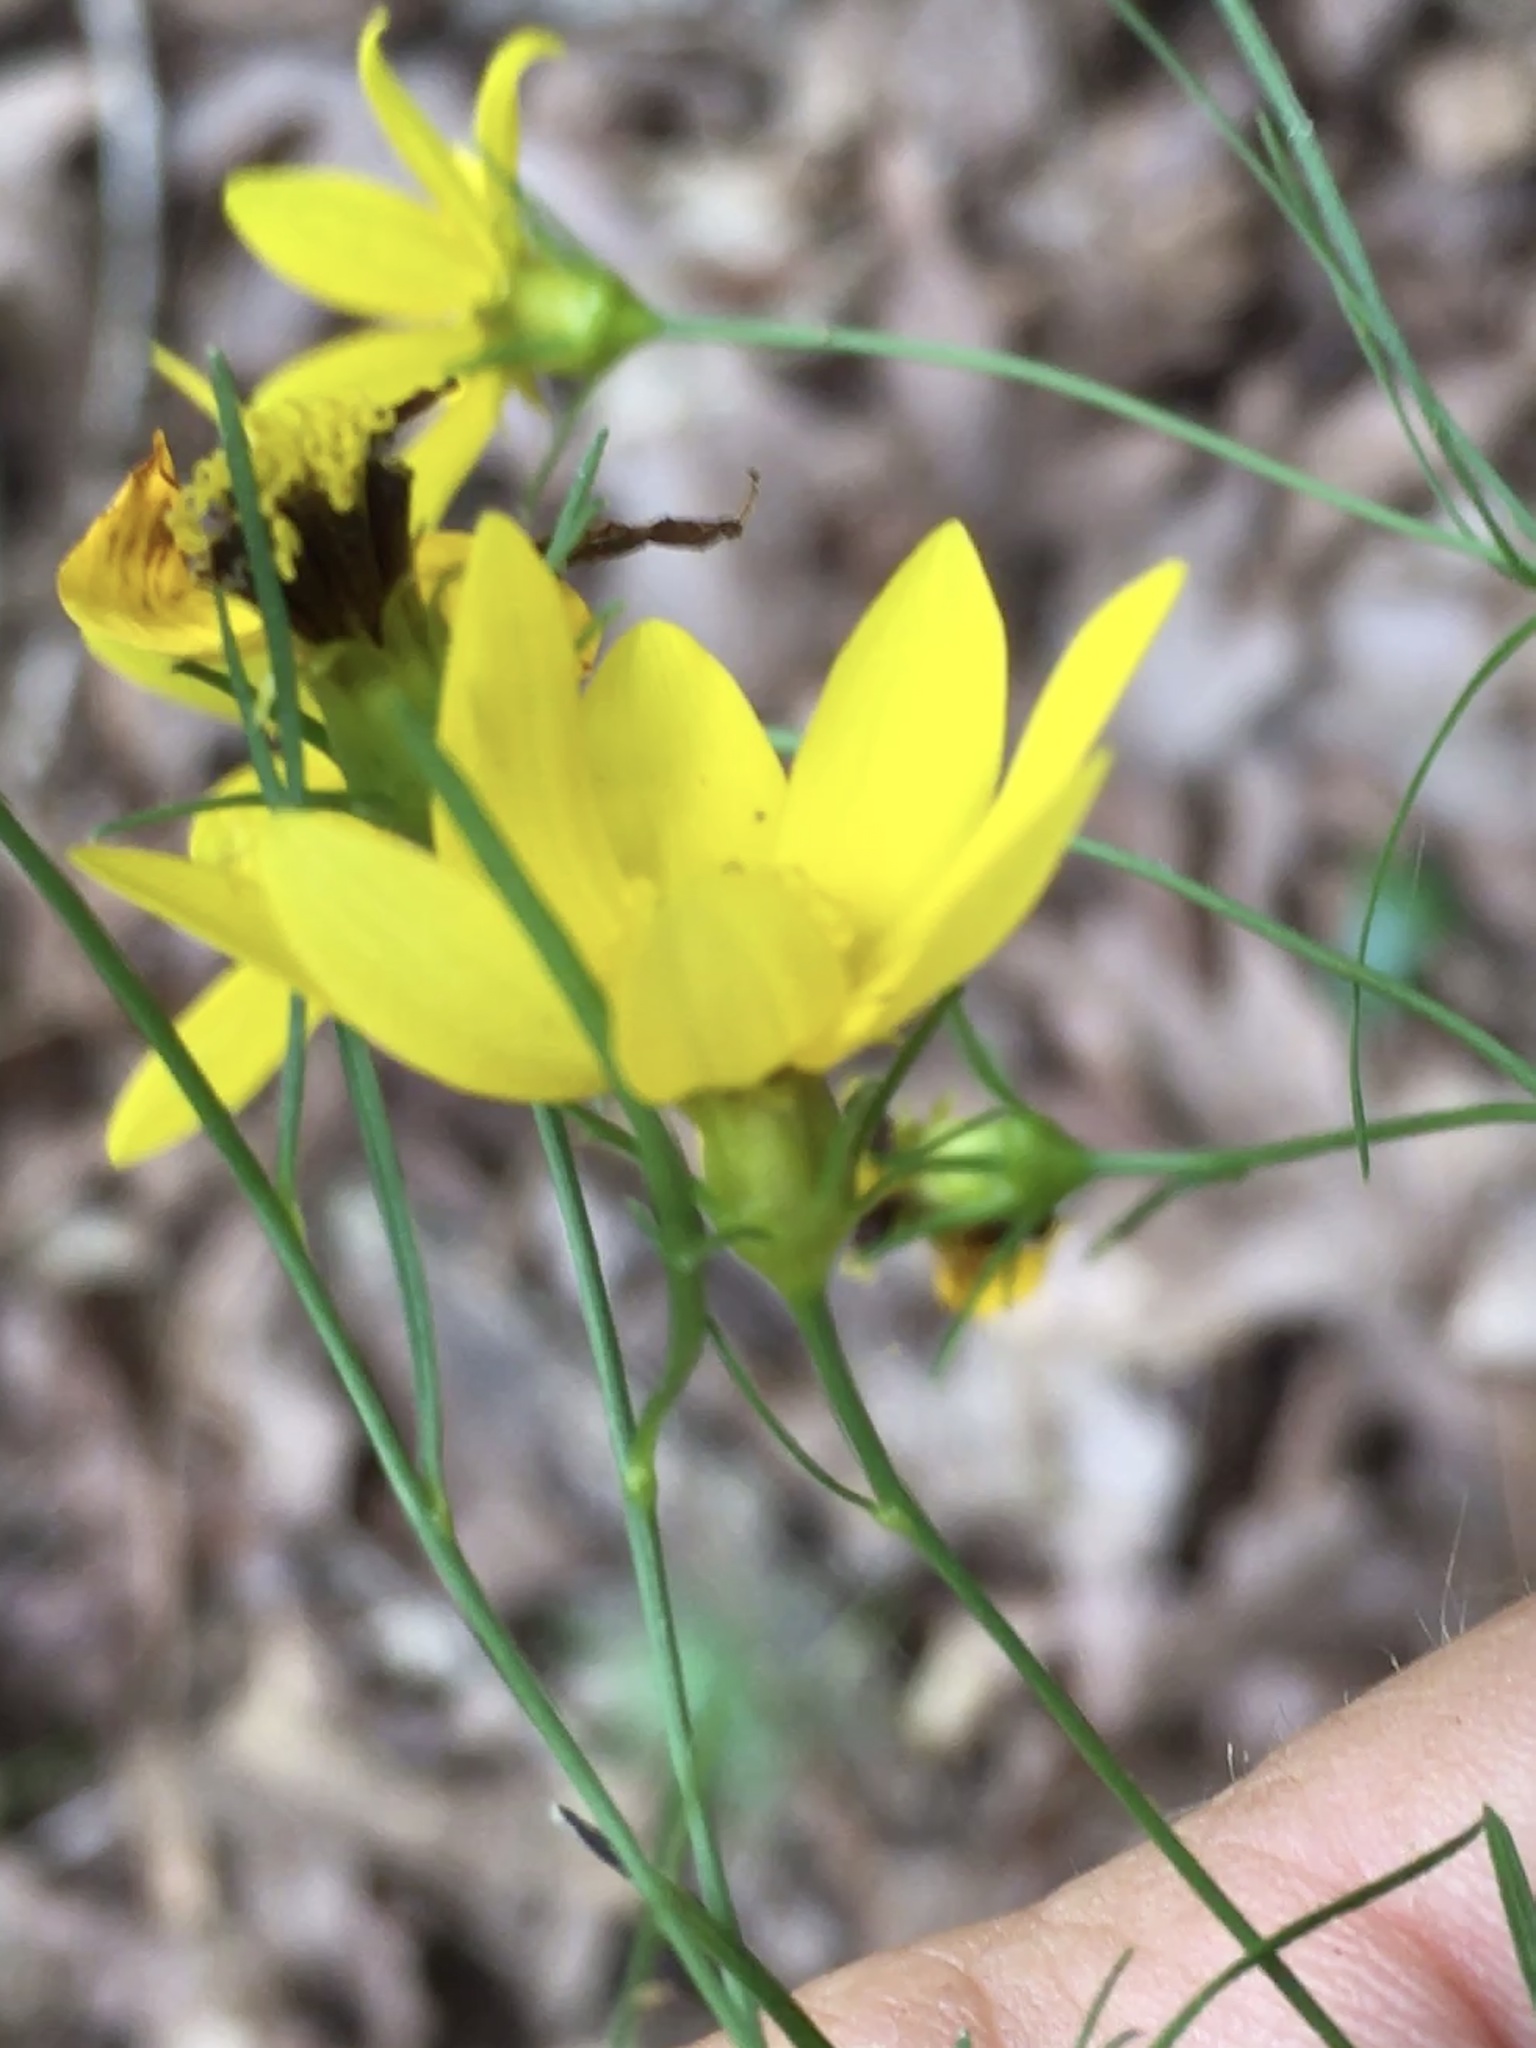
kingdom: Plantae
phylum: Tracheophyta
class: Magnoliopsida
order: Asterales
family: Asteraceae
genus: Coreopsis
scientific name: Coreopsis verticillata
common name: Whorled tickseed
